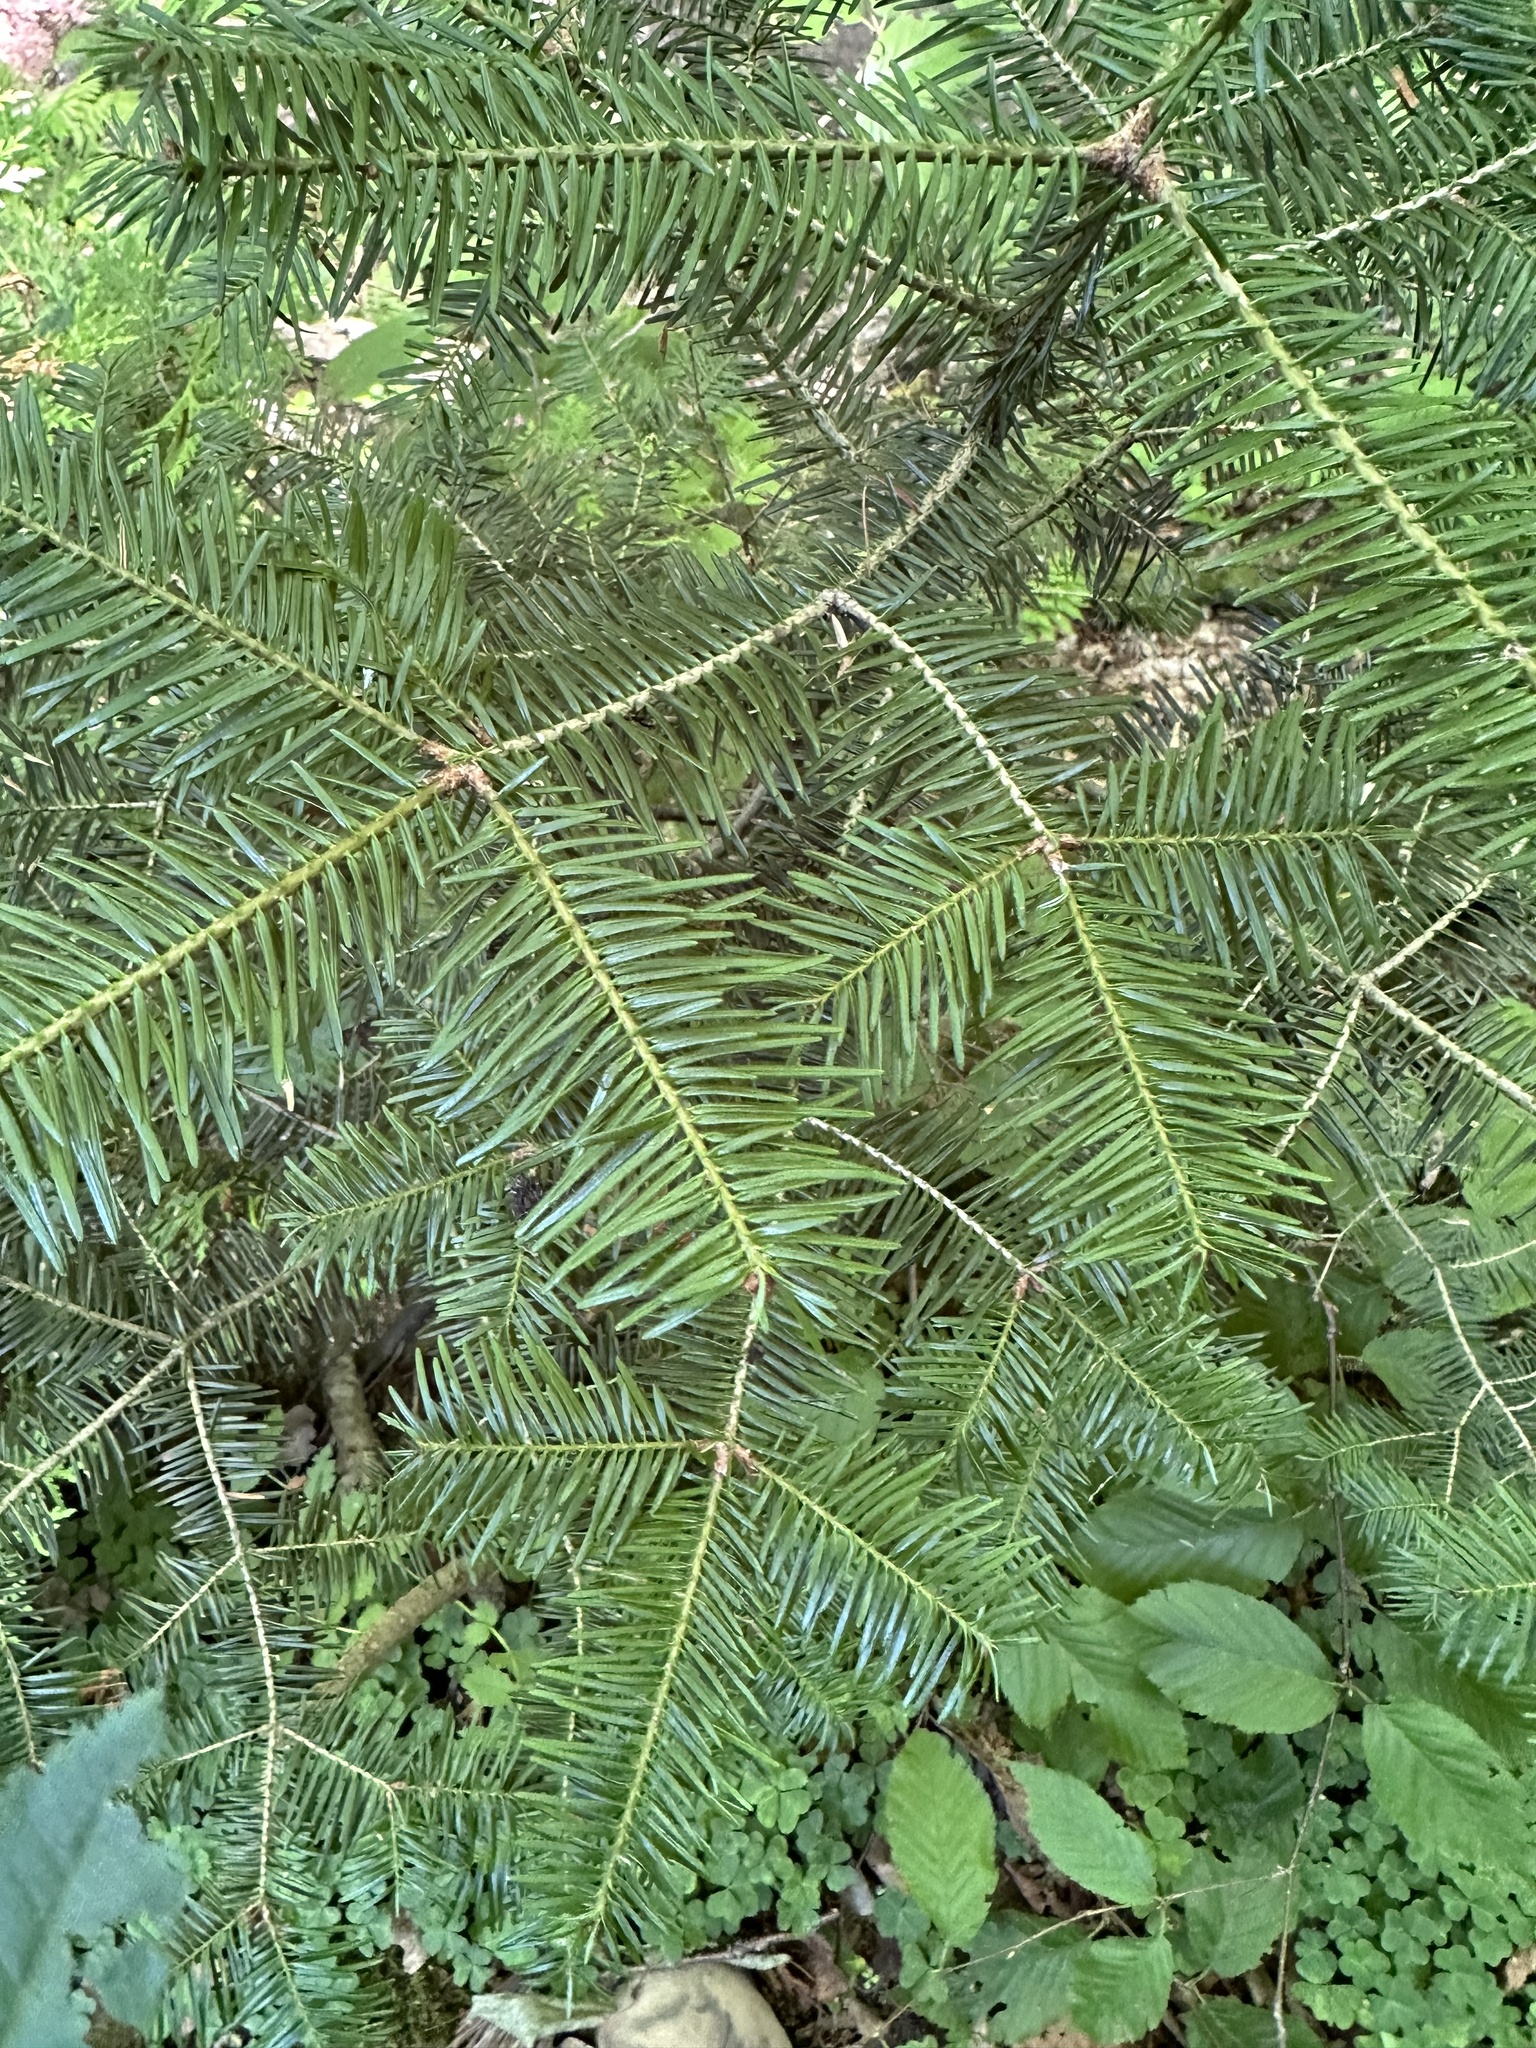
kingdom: Plantae
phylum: Tracheophyta
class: Pinopsida
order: Pinales
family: Pinaceae
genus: Abies
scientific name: Abies balsamea
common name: Balsam fir
